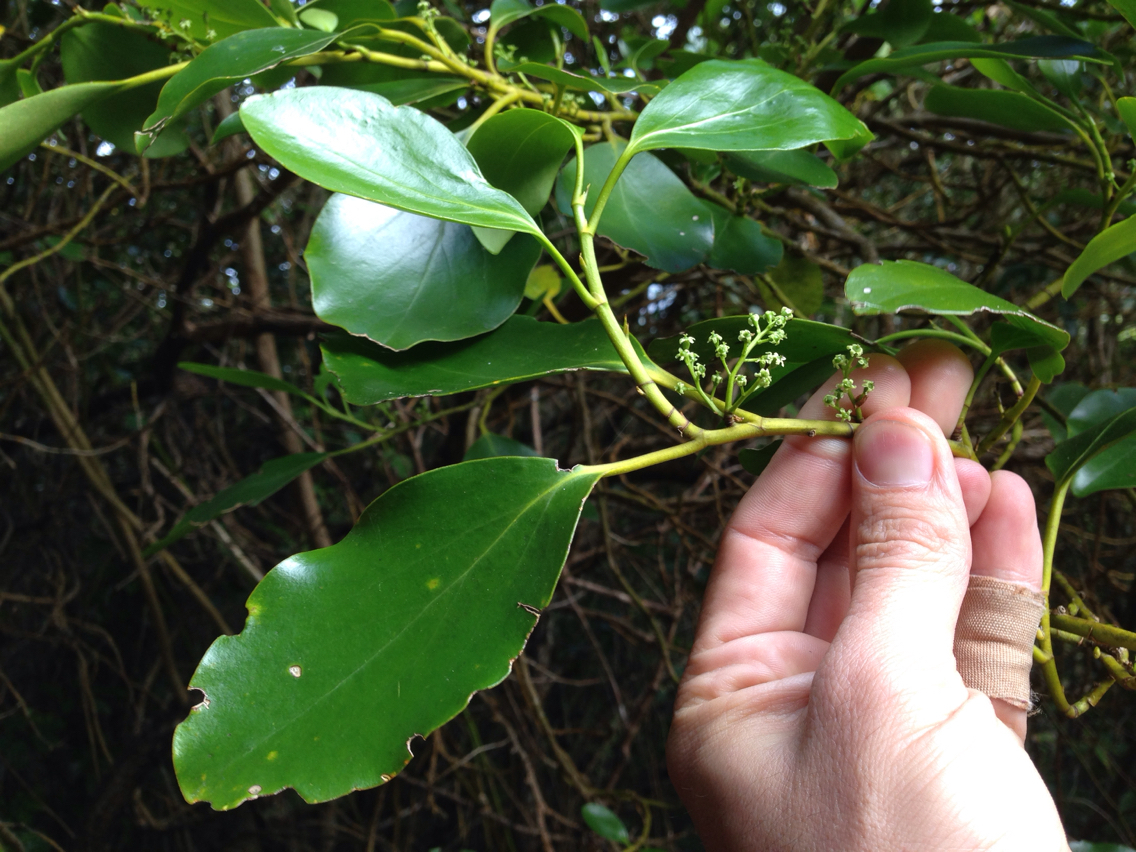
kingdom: Plantae
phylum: Tracheophyta
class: Magnoliopsida
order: Apiales
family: Griseliniaceae
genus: Griselinia
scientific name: Griselinia littoralis
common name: New zealand broadleaf
